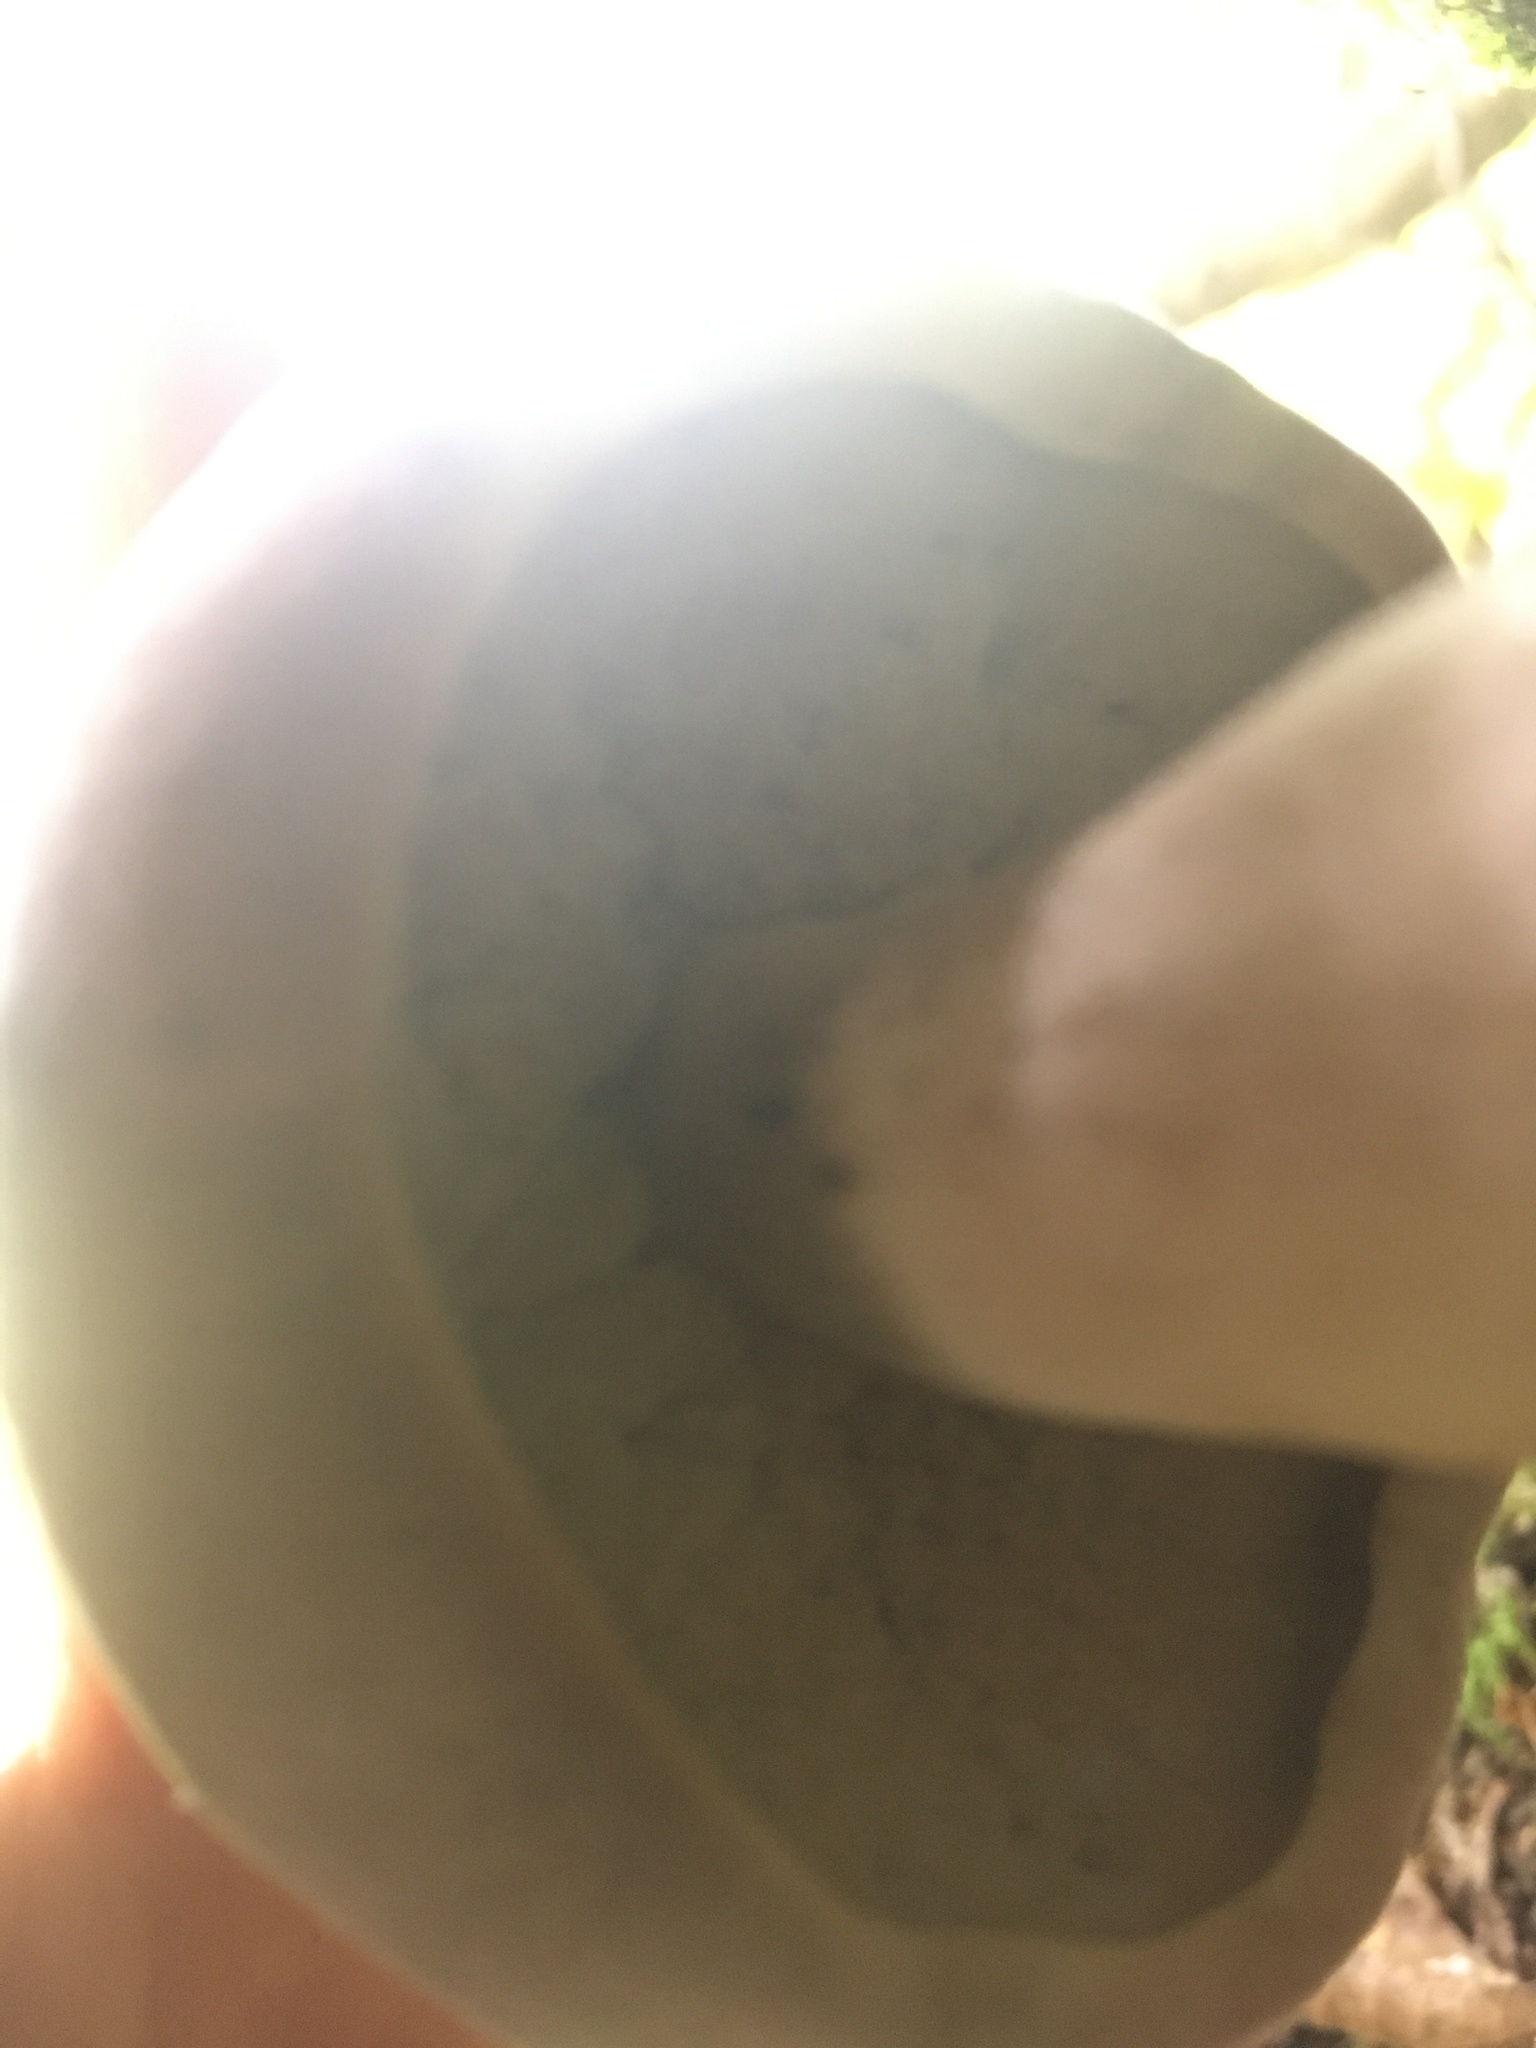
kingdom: Fungi
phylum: Basidiomycota
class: Agaricomycetes
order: Boletales
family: Boletaceae
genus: Tylopilus
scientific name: Tylopilus rubrobrunneus
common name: Reddish brown bitter bolete
